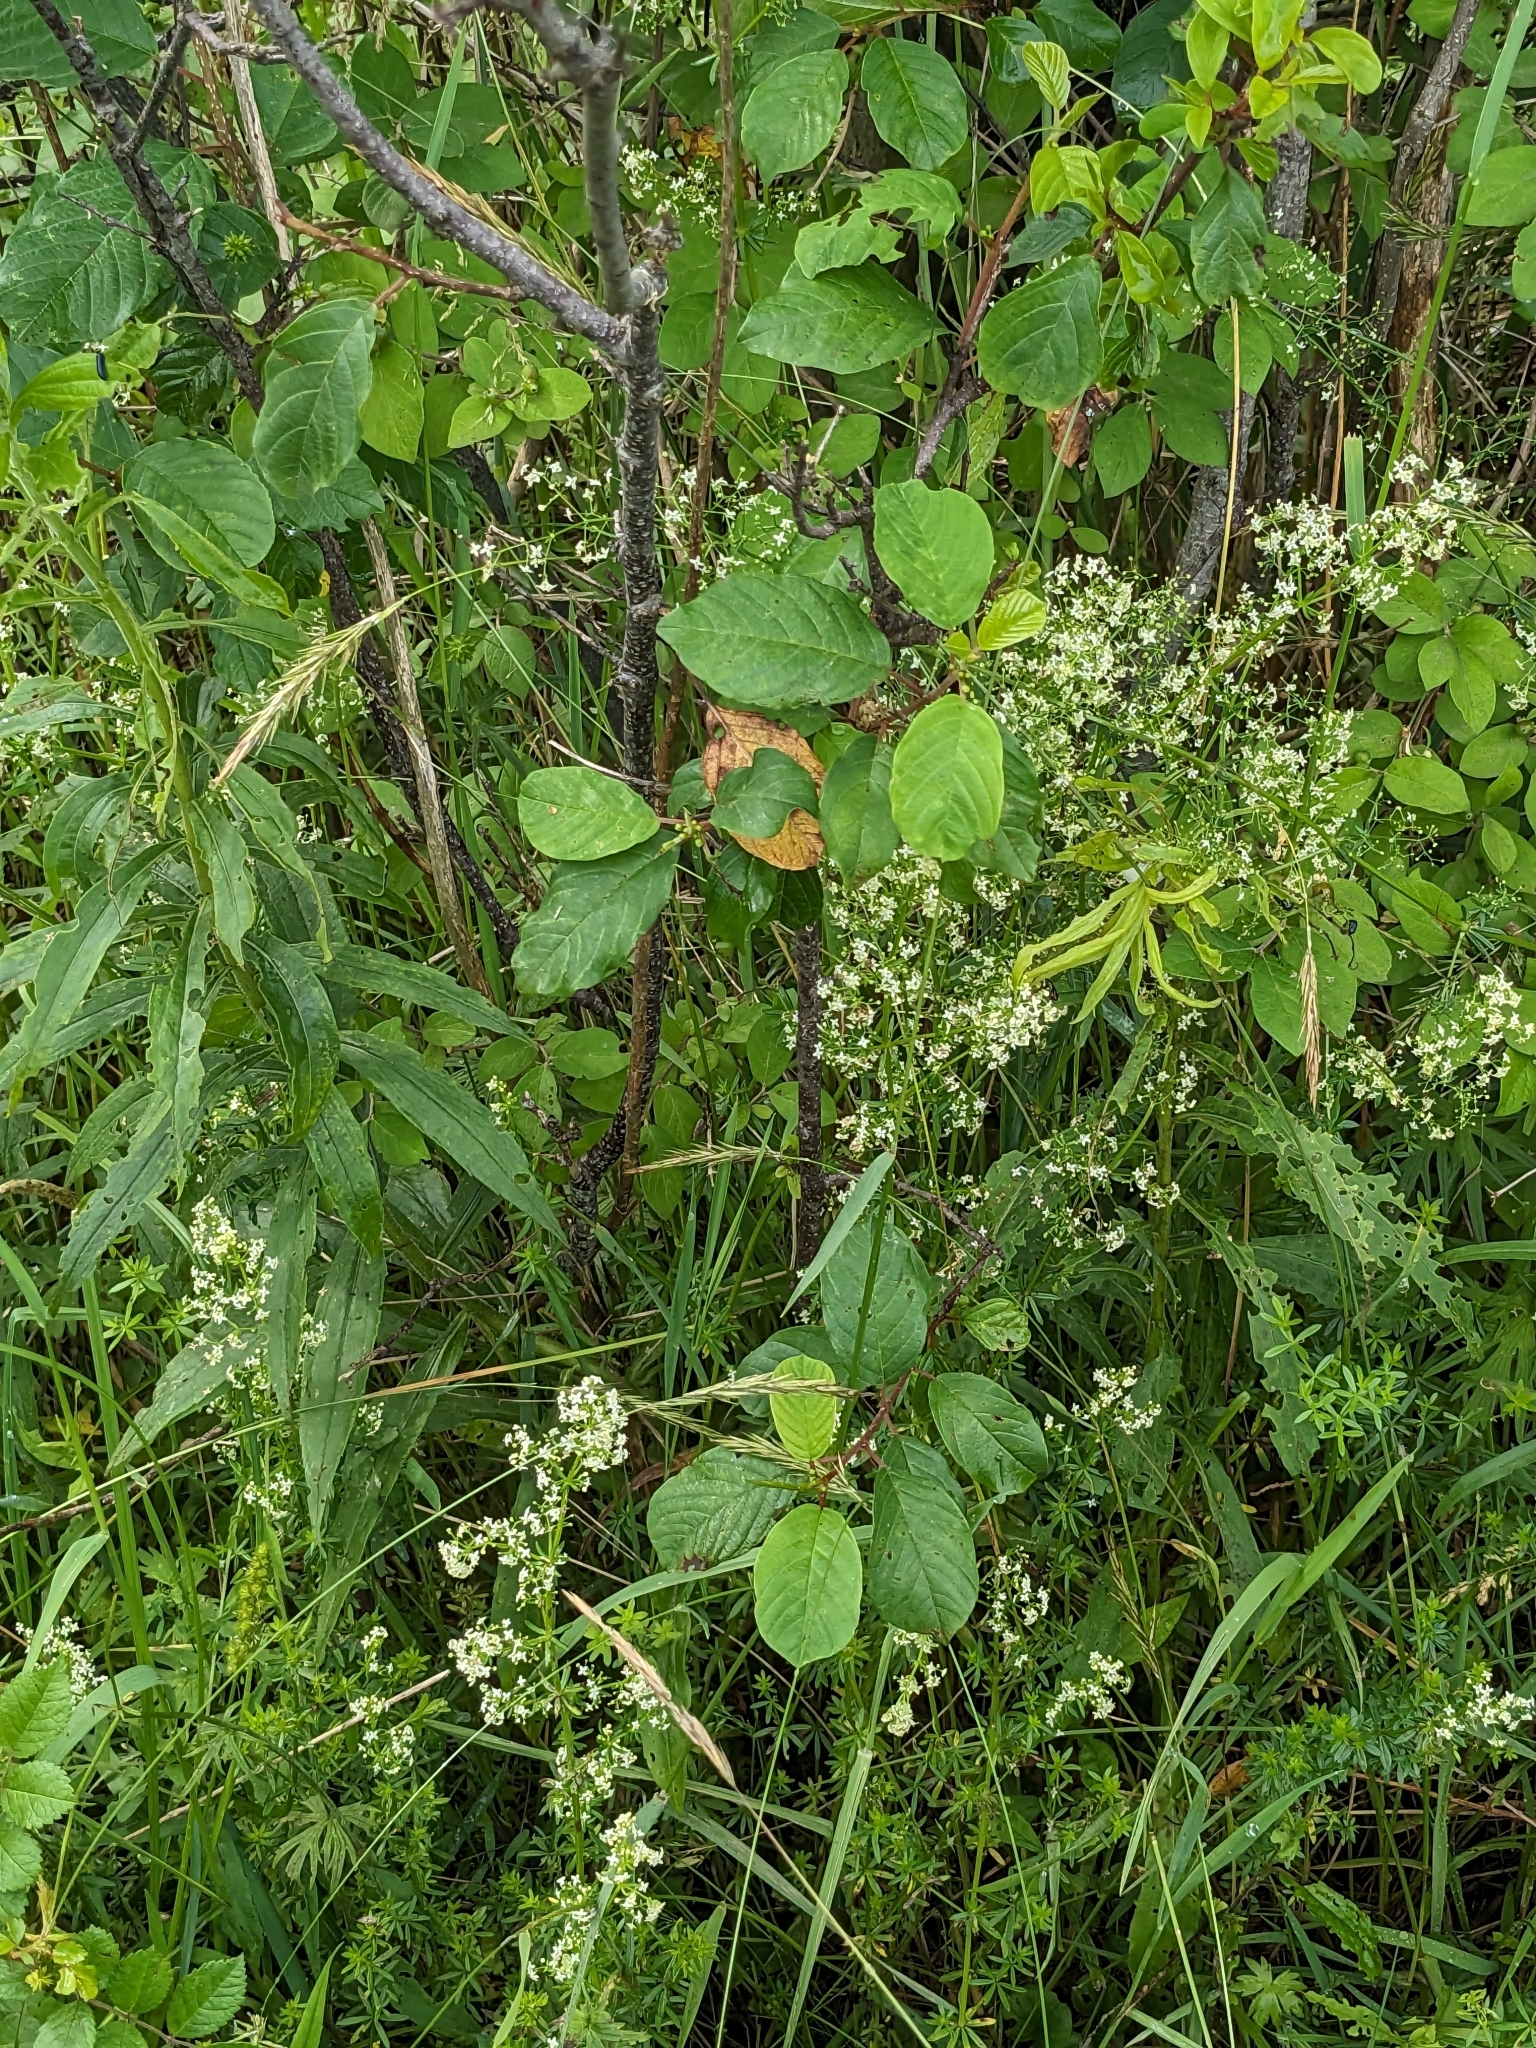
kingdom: Plantae
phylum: Tracheophyta
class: Magnoliopsida
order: Rosales
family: Rhamnaceae
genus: Frangula
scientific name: Frangula alnus
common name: Alder buckthorn
